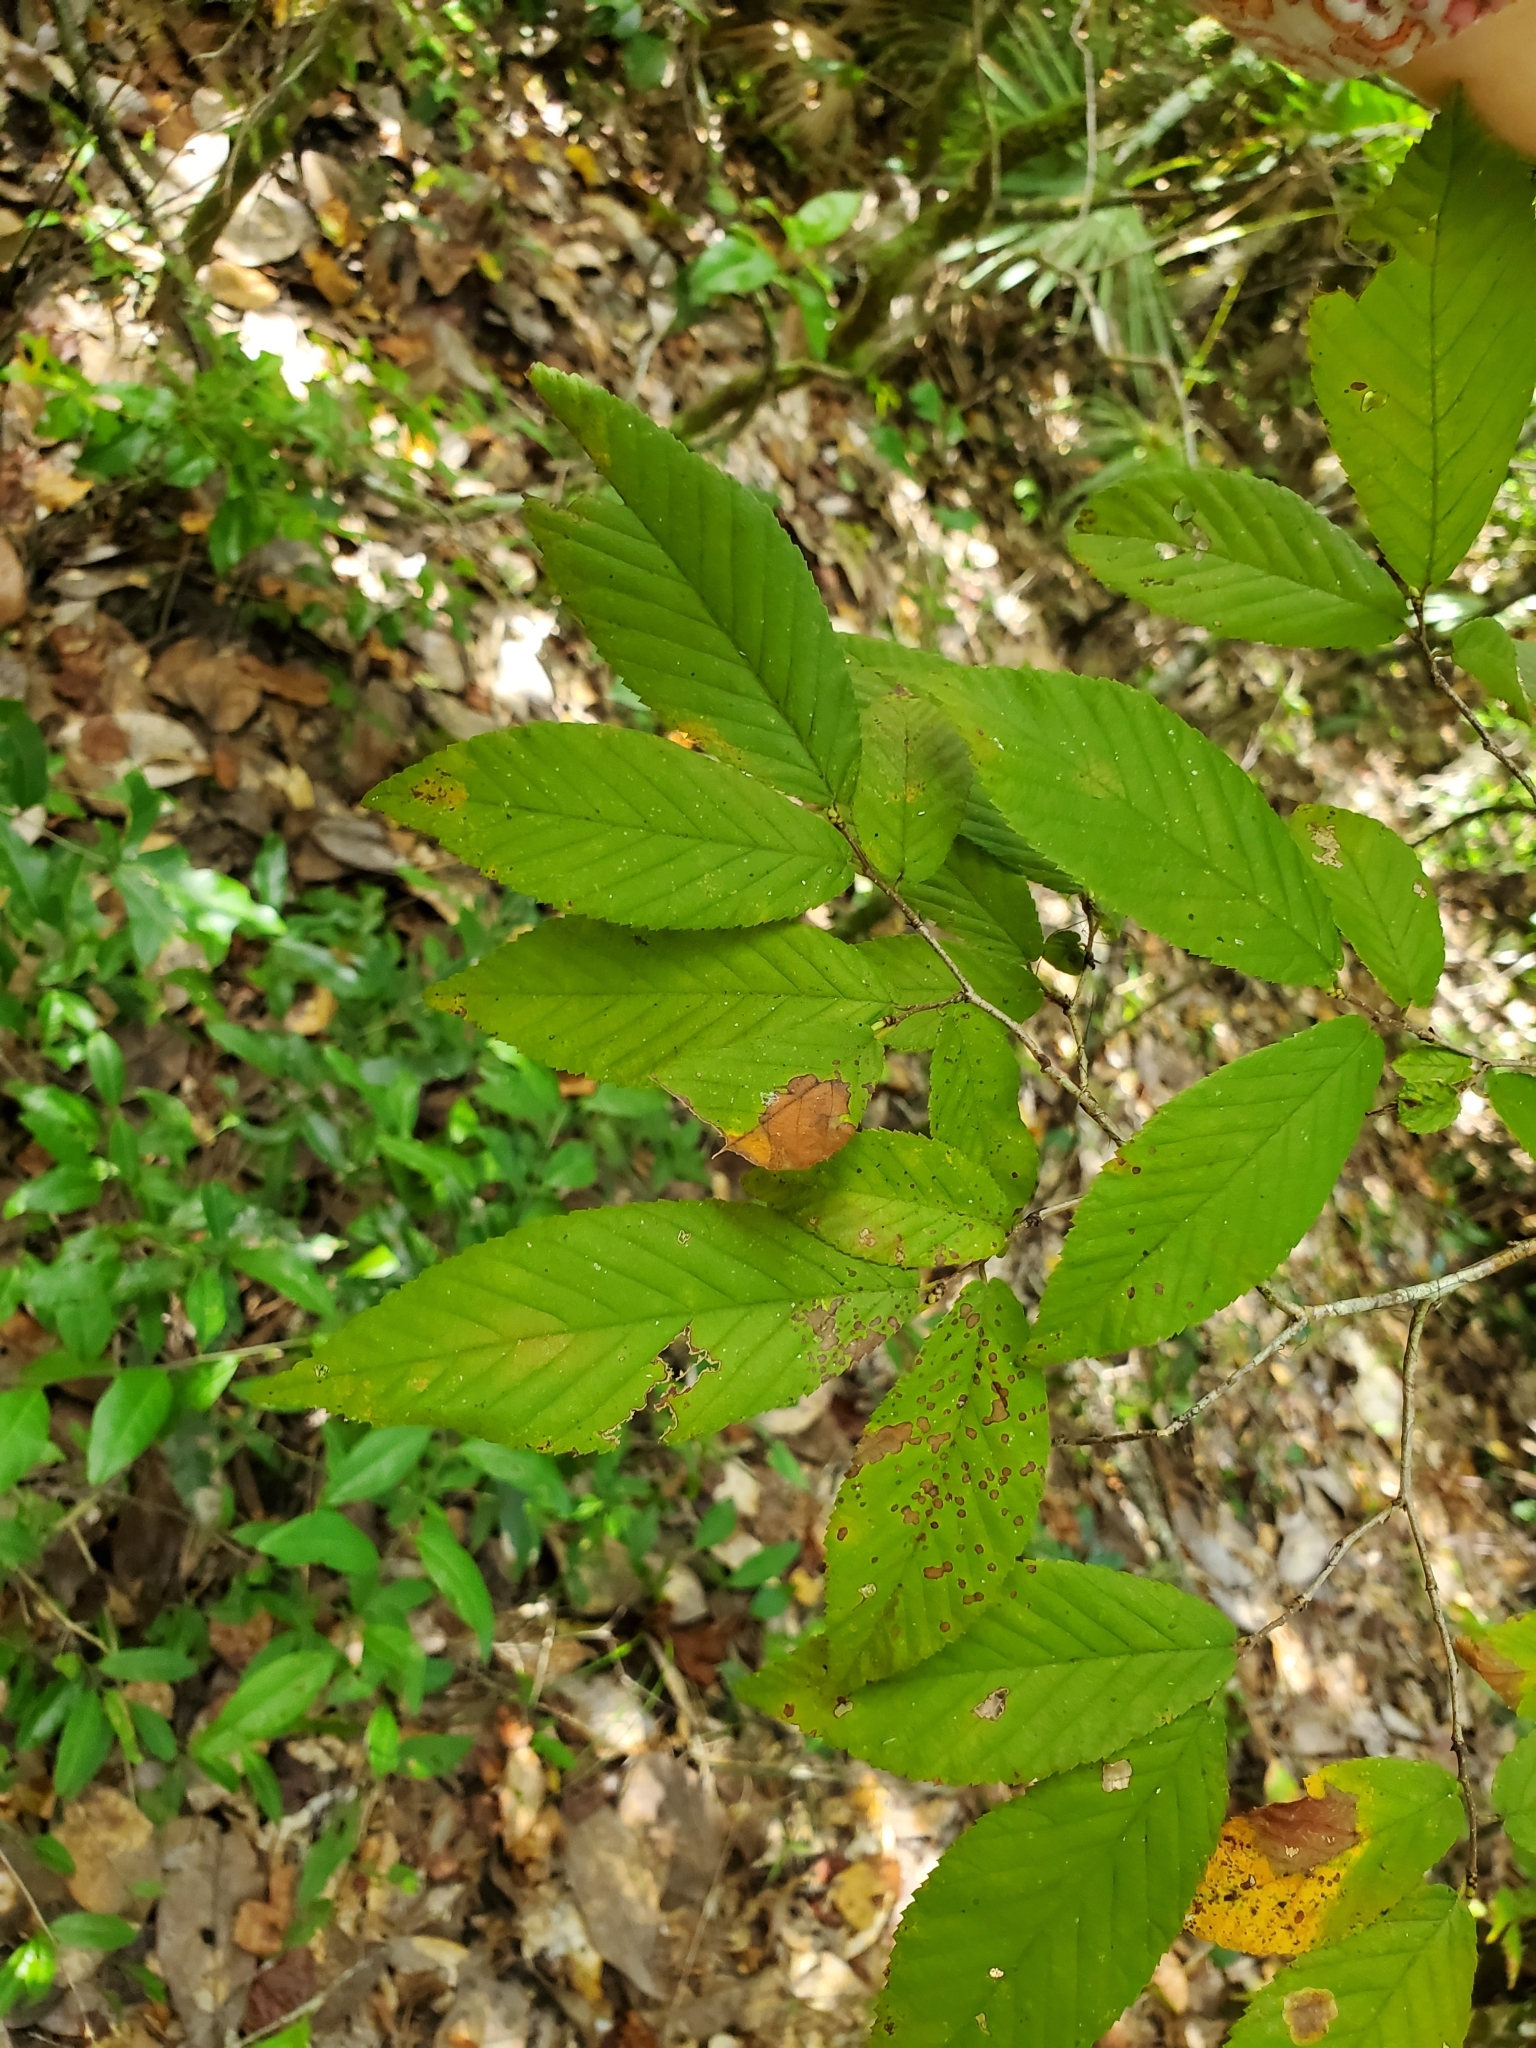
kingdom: Plantae
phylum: Tracheophyta
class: Magnoliopsida
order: Fagales
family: Betulaceae
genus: Ostrya
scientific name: Ostrya virginiana
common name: Ironwood
